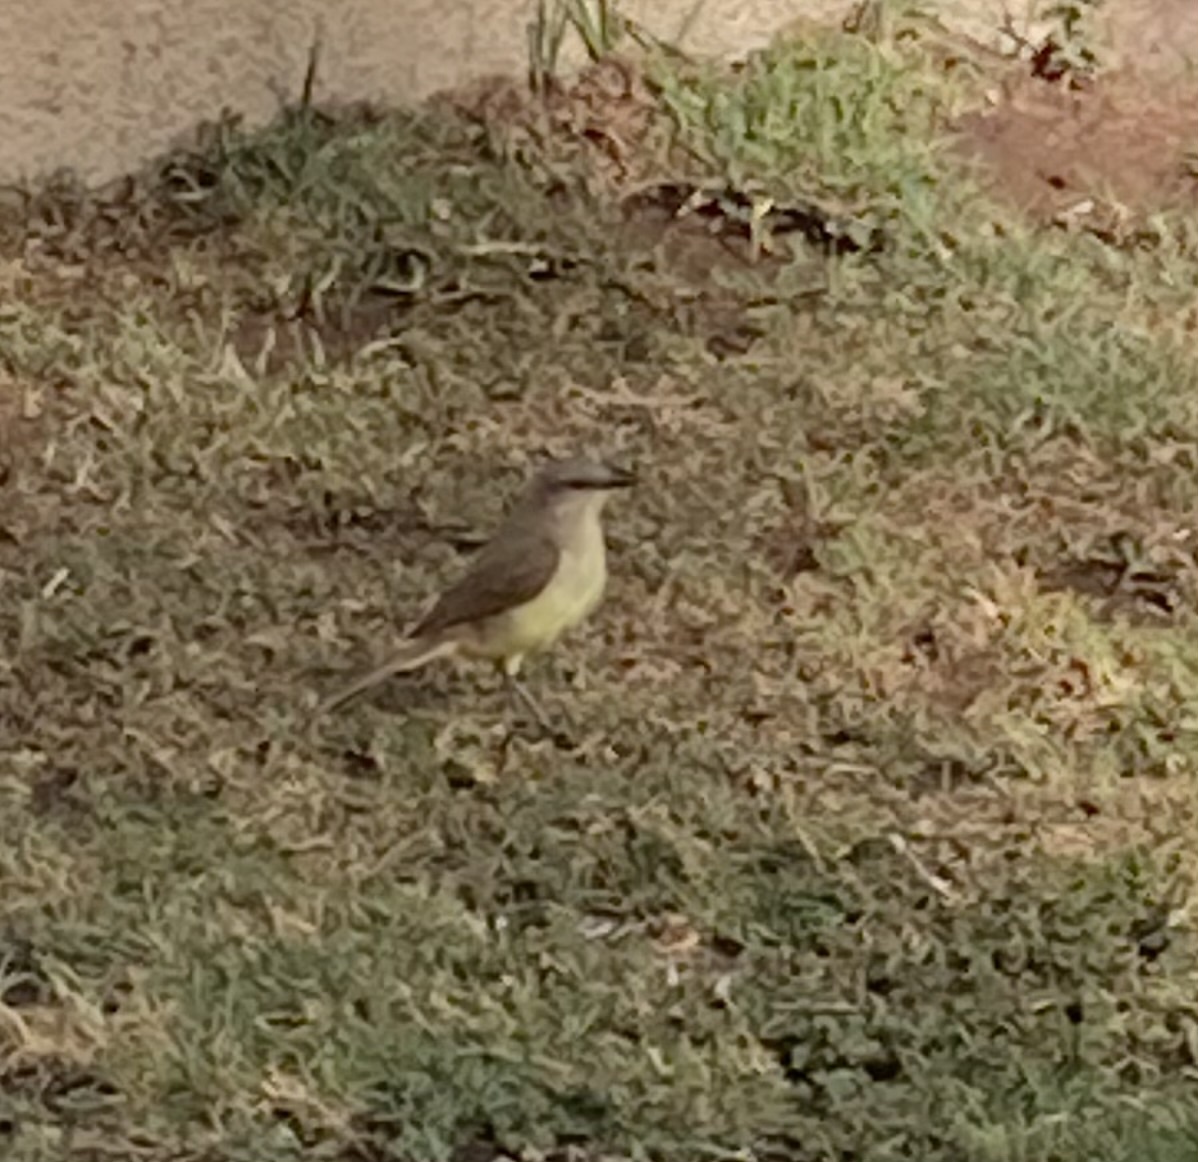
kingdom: Animalia
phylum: Chordata
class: Aves
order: Passeriformes
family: Tyrannidae
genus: Machetornis
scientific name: Machetornis rixosa
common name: Cattle tyrant
